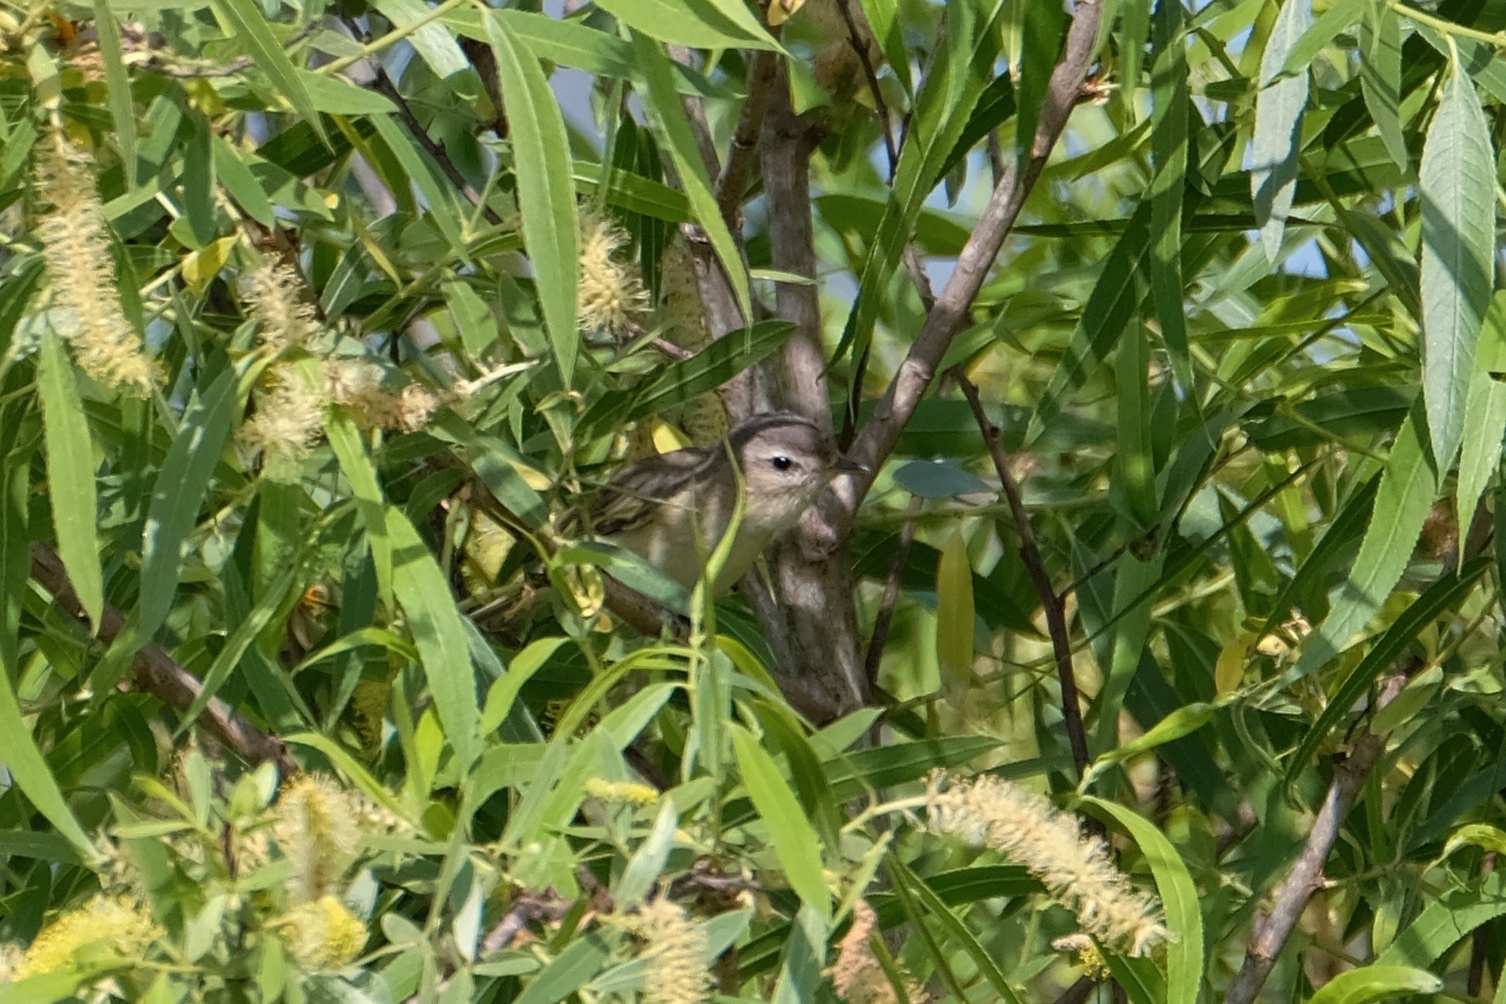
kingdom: Animalia
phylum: Chordata
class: Aves
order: Passeriformes
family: Vireonidae
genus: Vireo
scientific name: Vireo gilvus
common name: Warbling vireo
